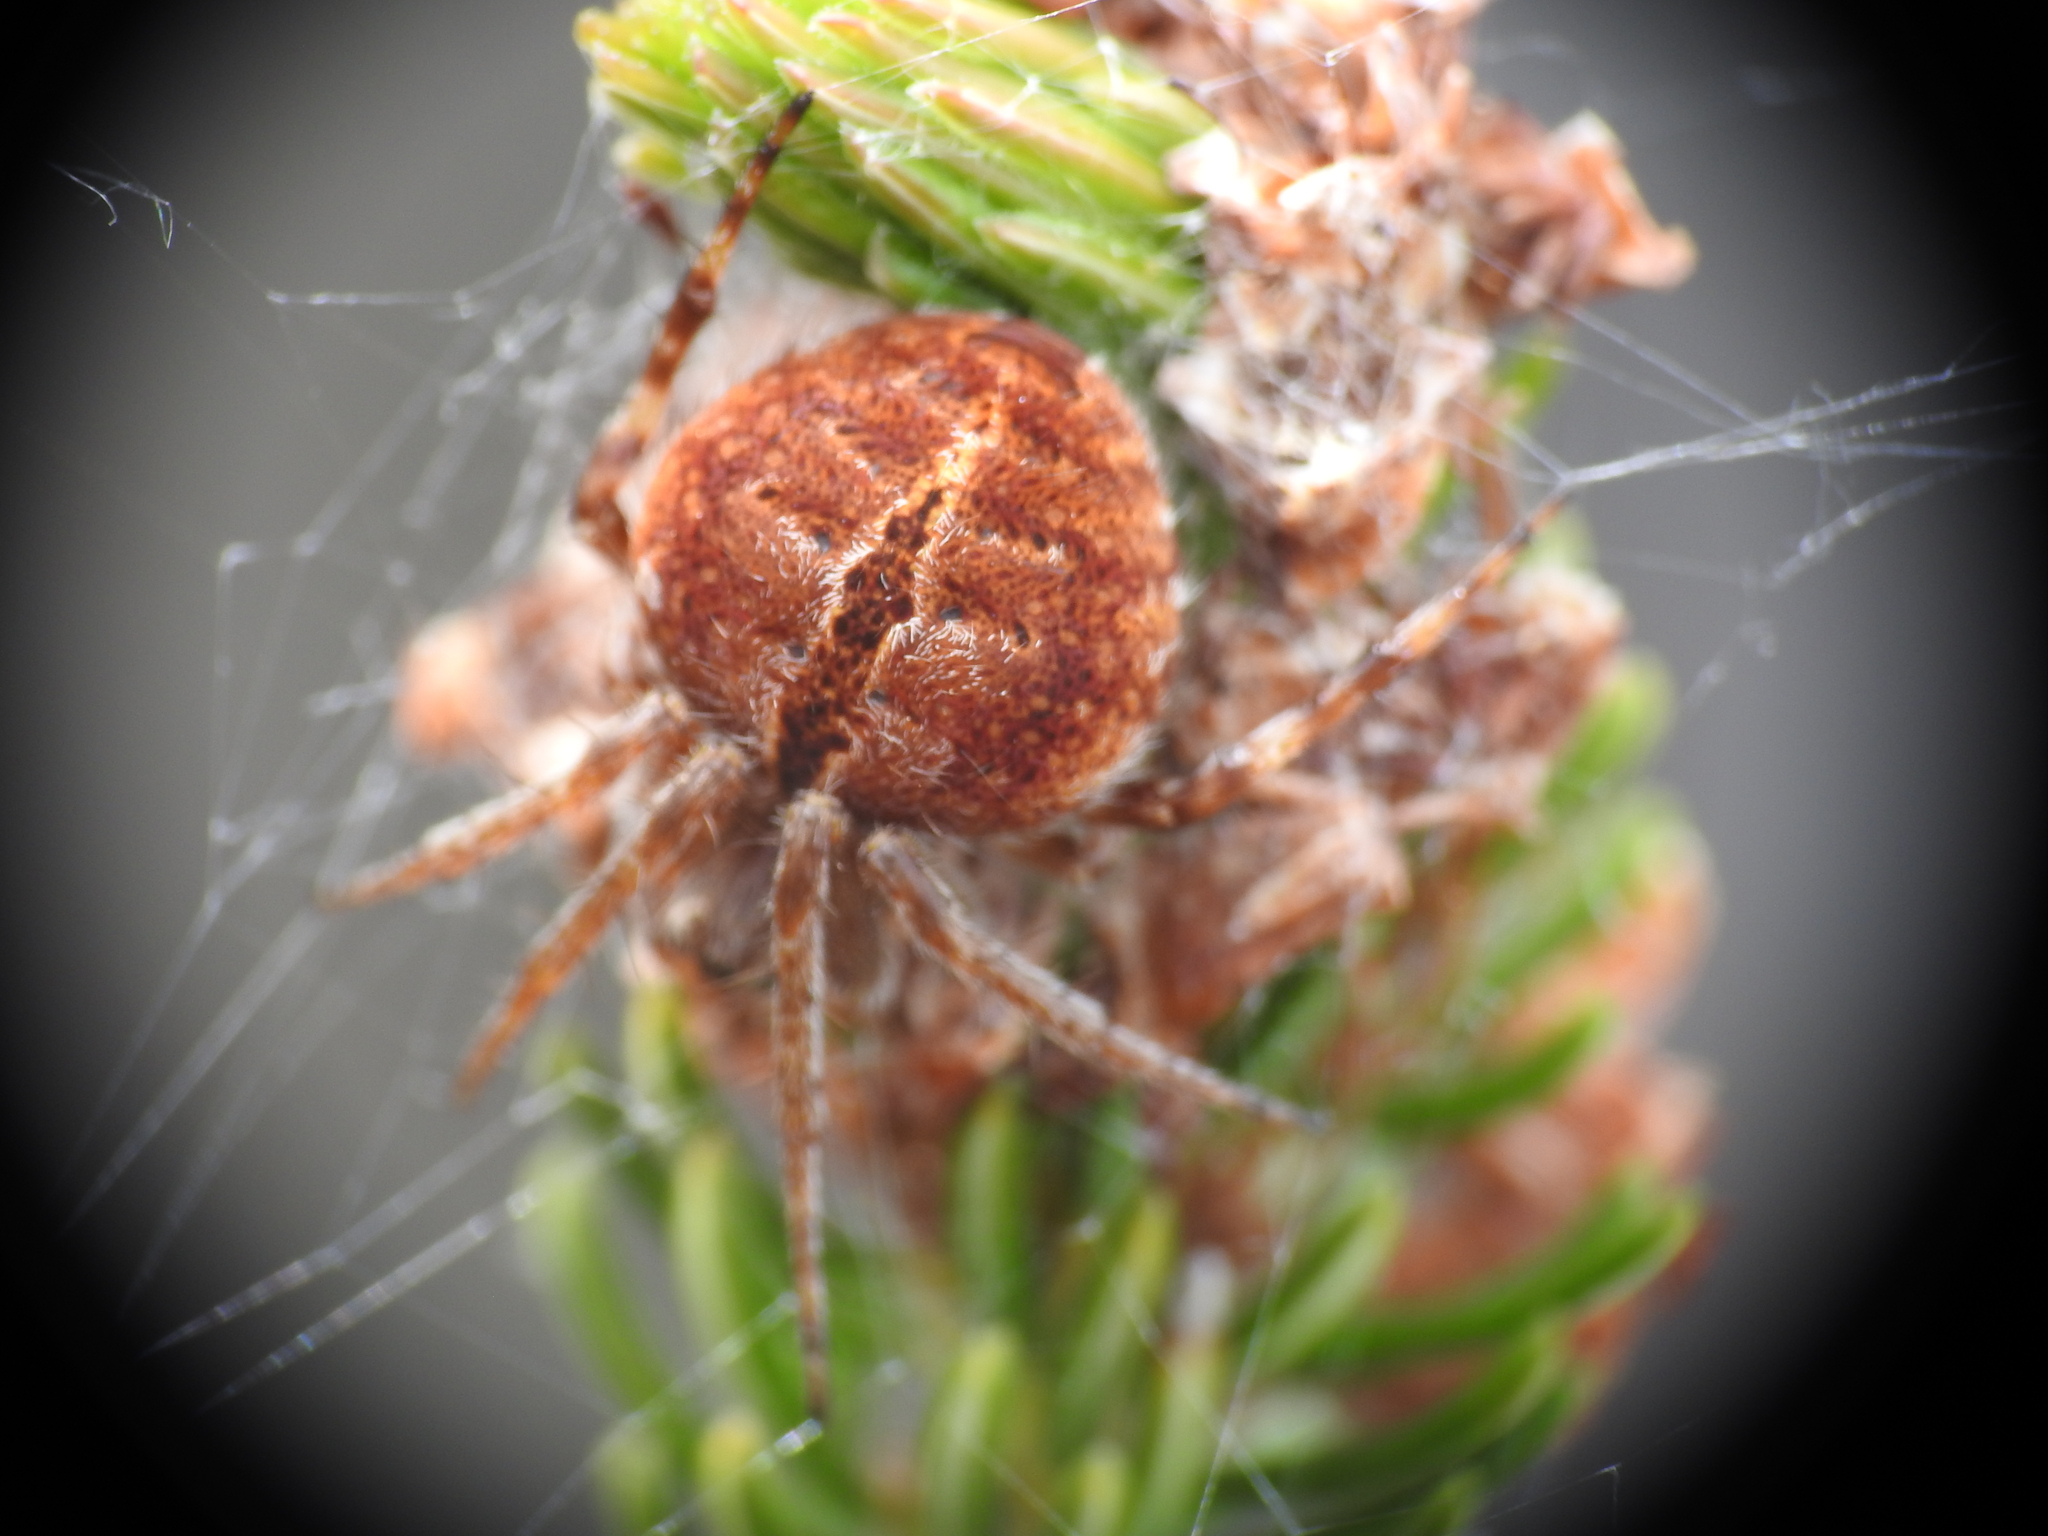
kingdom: Animalia
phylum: Arthropoda
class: Arachnida
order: Araneae
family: Araneidae
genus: Agalenatea
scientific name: Agalenatea redii
